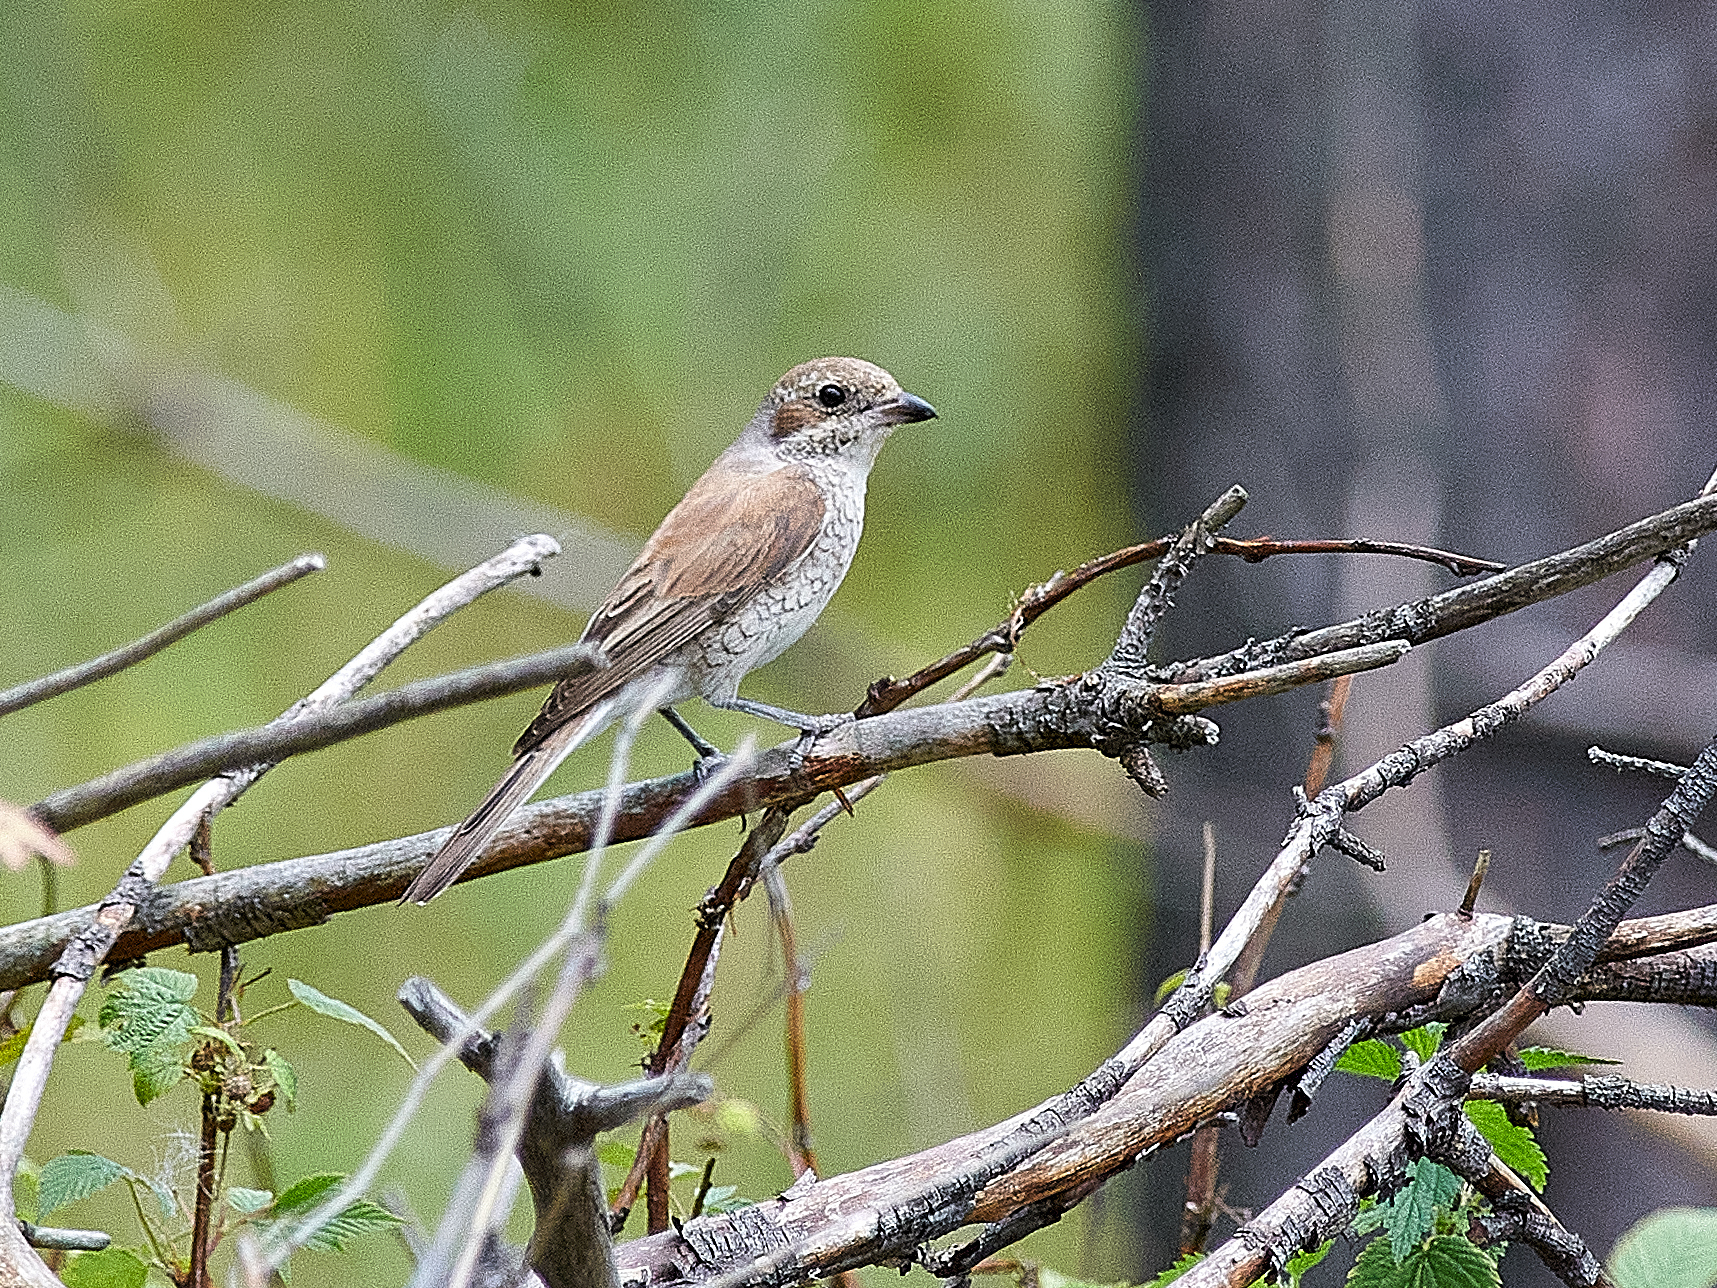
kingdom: Animalia
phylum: Chordata
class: Aves
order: Passeriformes
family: Laniidae
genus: Lanius
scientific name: Lanius collurio
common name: Red-backed shrike
